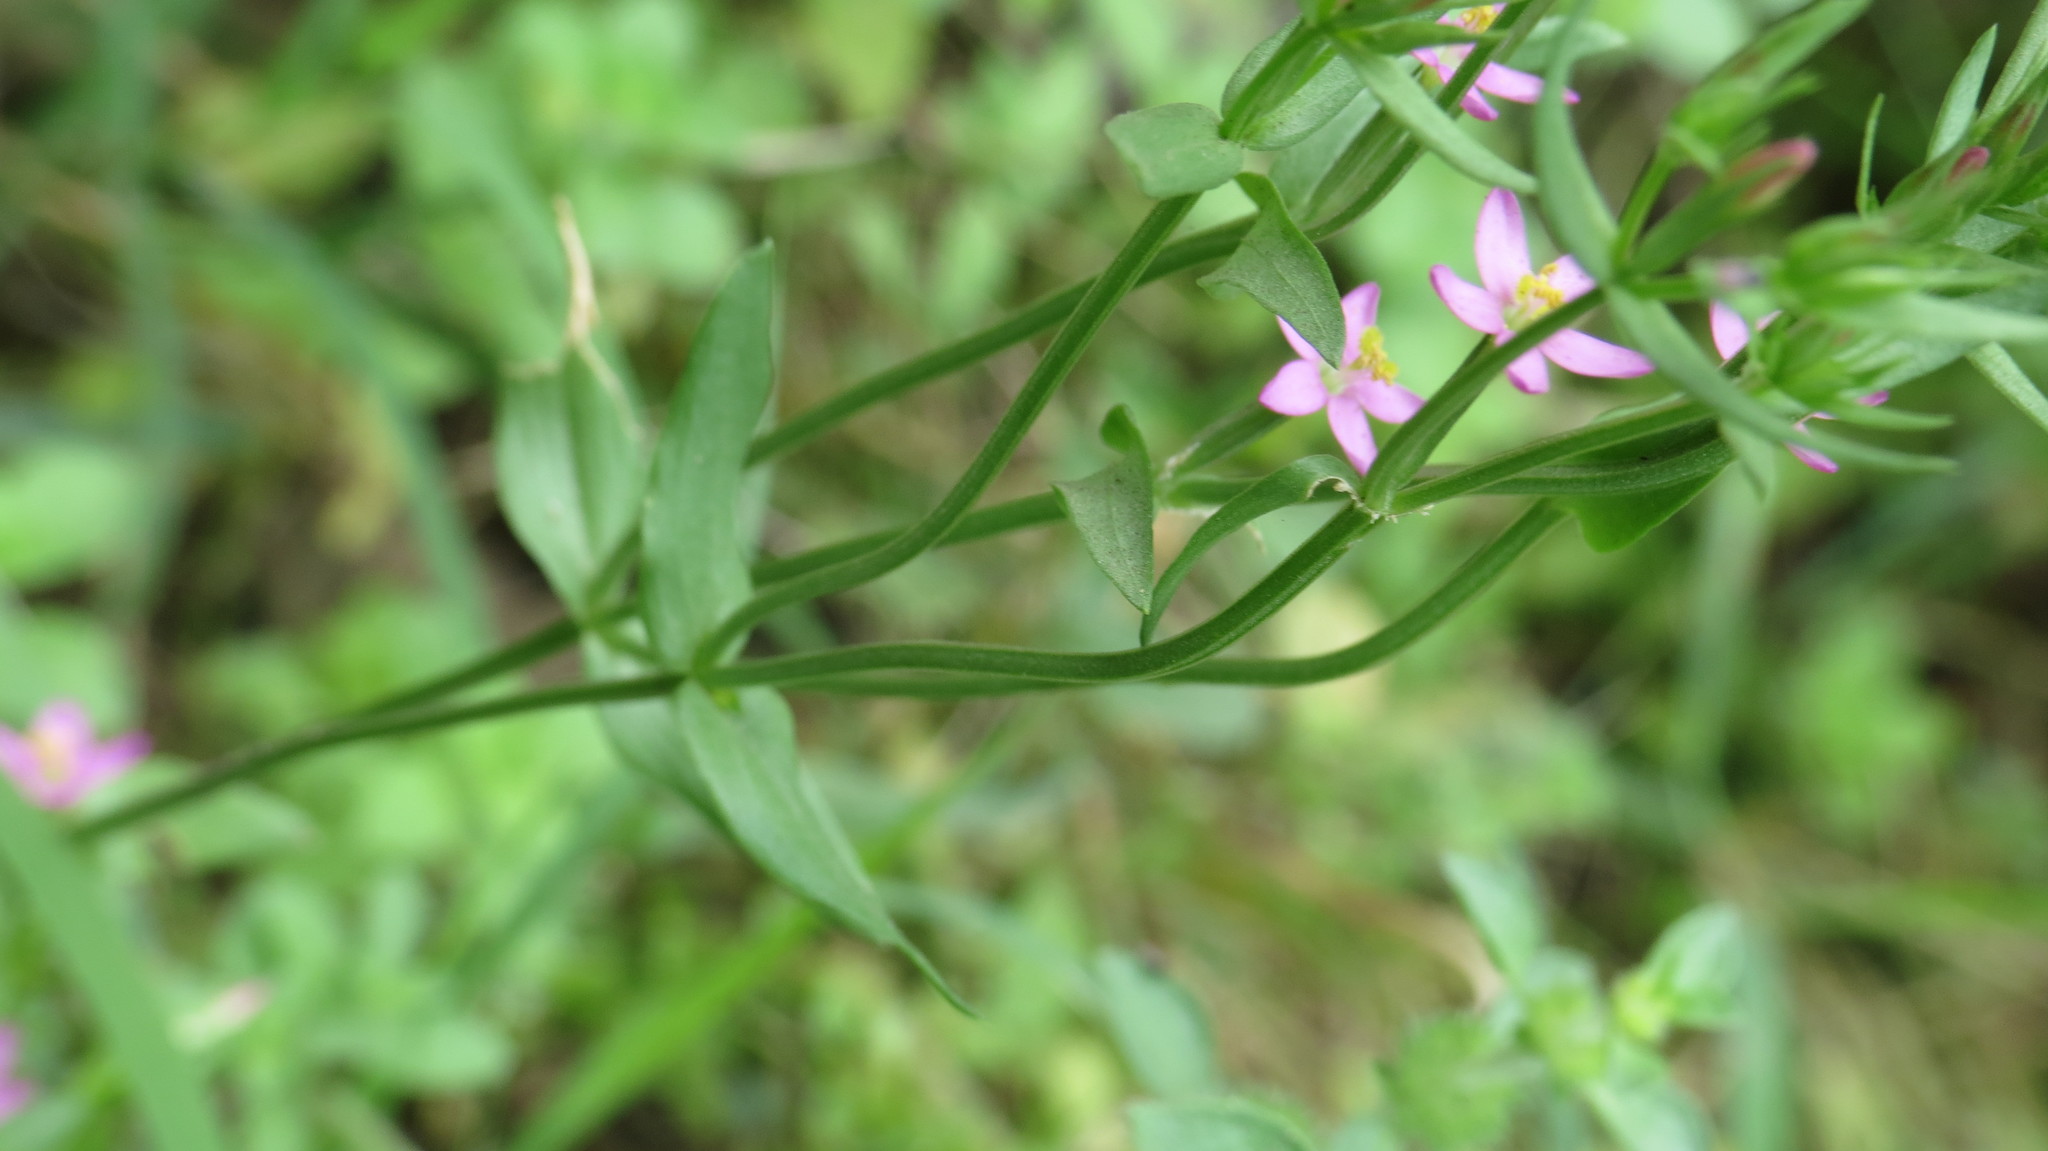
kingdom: Plantae
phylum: Tracheophyta
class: Magnoliopsida
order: Gentianales
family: Gentianaceae
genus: Centaurium
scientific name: Centaurium pulchellum
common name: Lesser centaury
